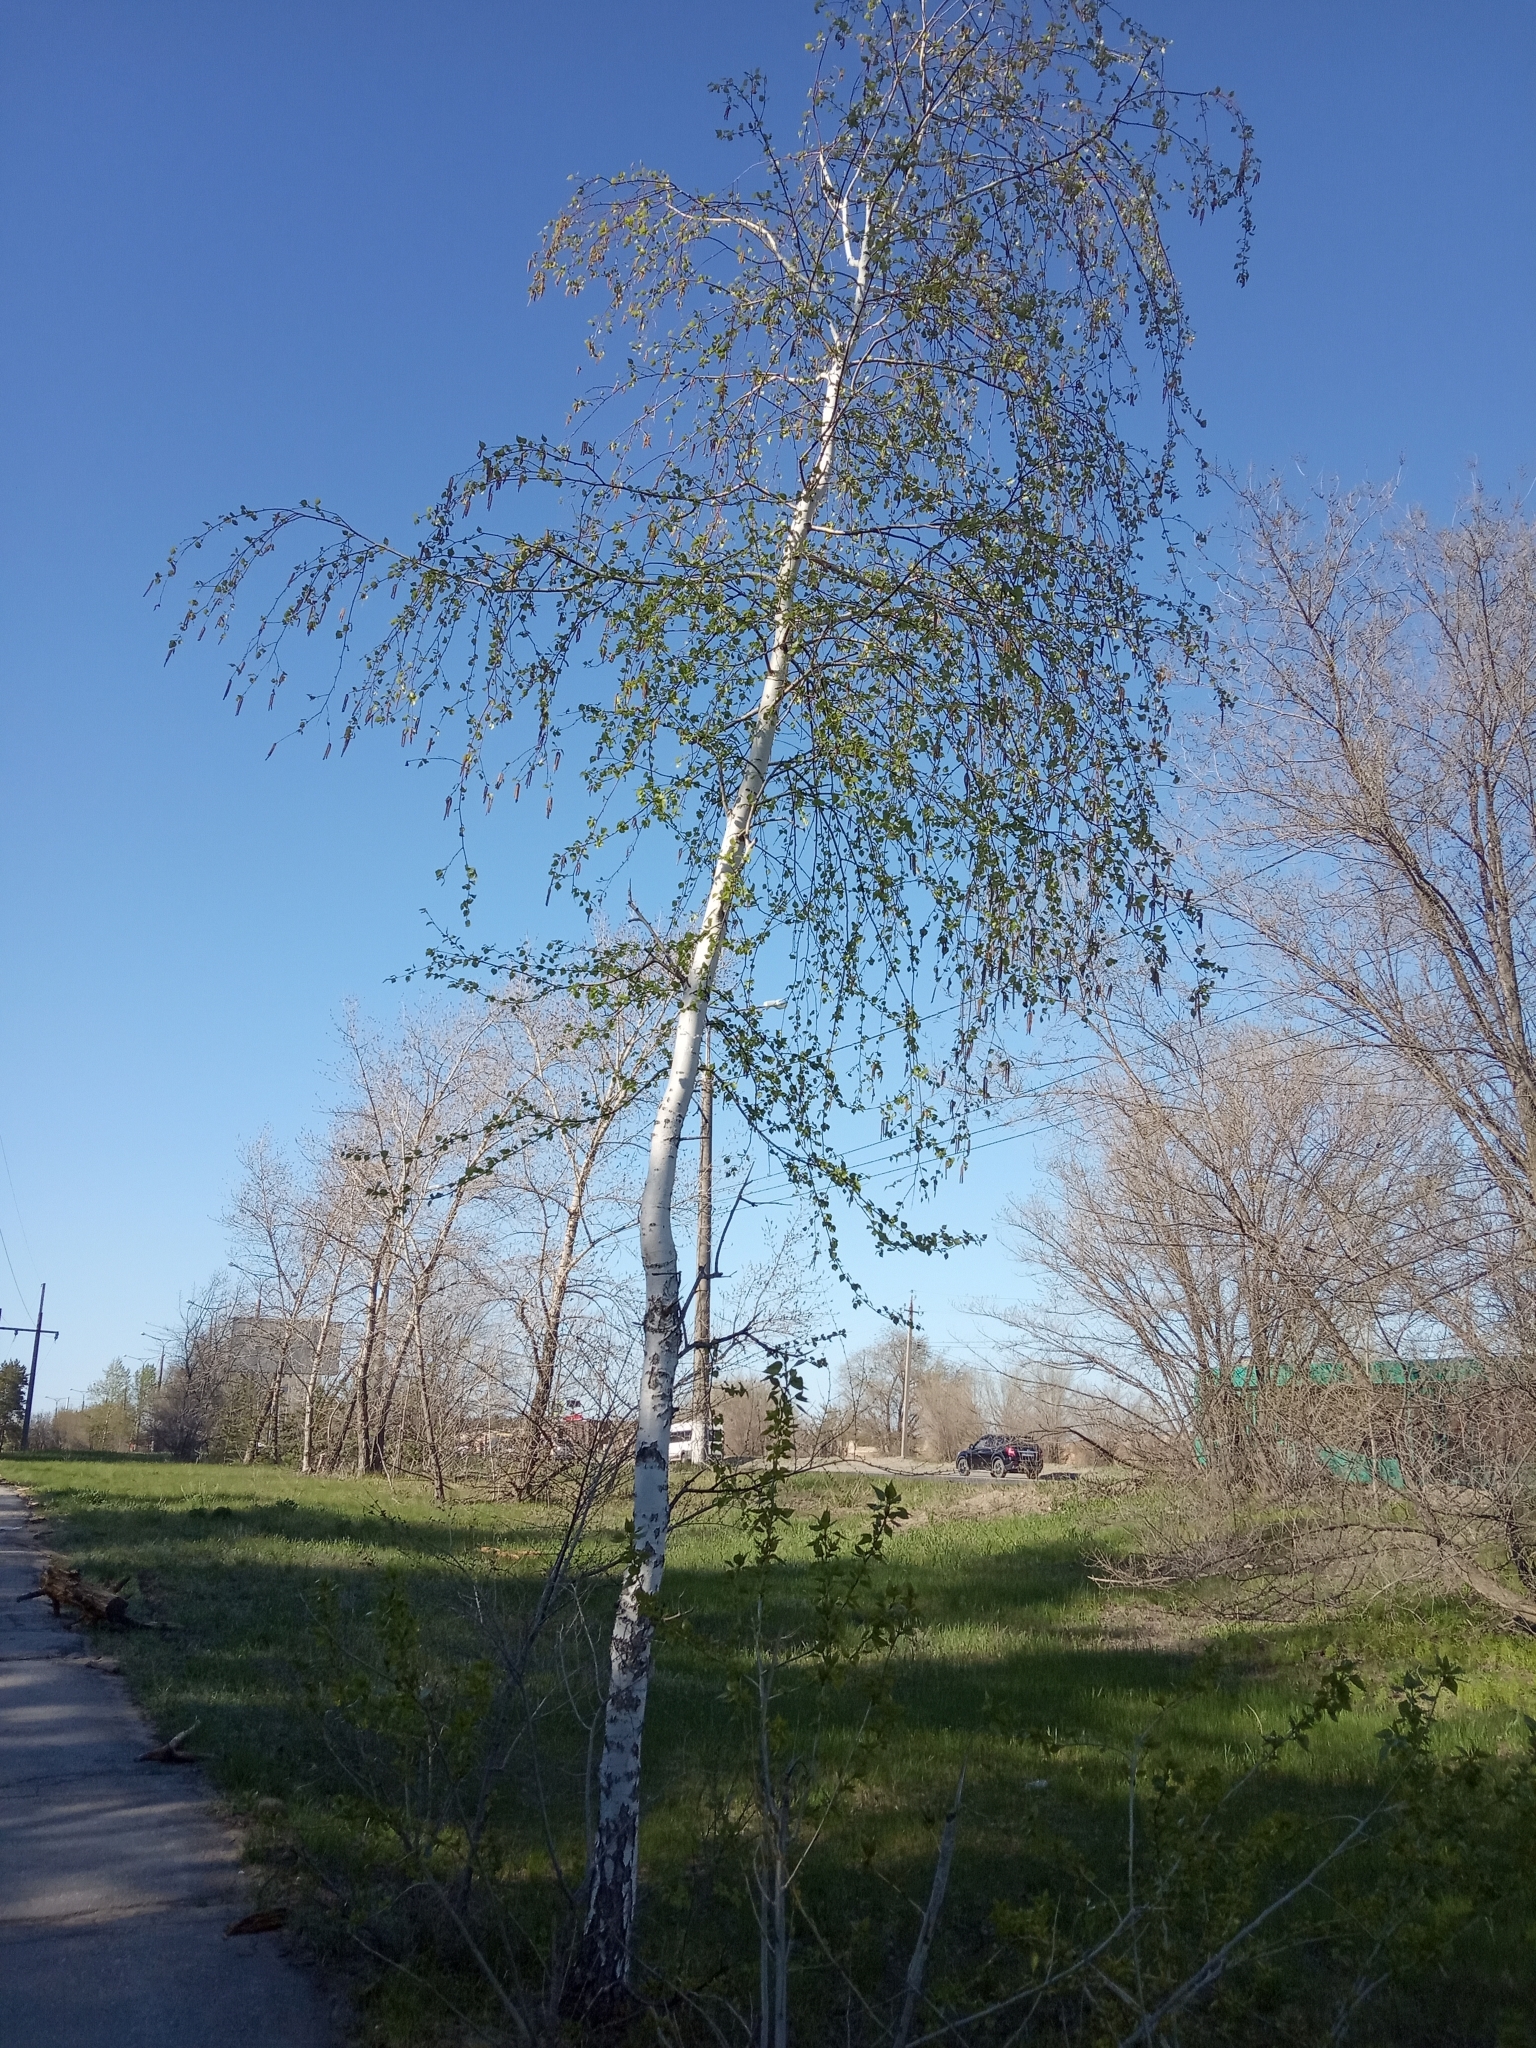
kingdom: Plantae
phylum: Tracheophyta
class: Magnoliopsida
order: Fagales
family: Betulaceae
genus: Betula
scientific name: Betula pendula
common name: Silver birch
